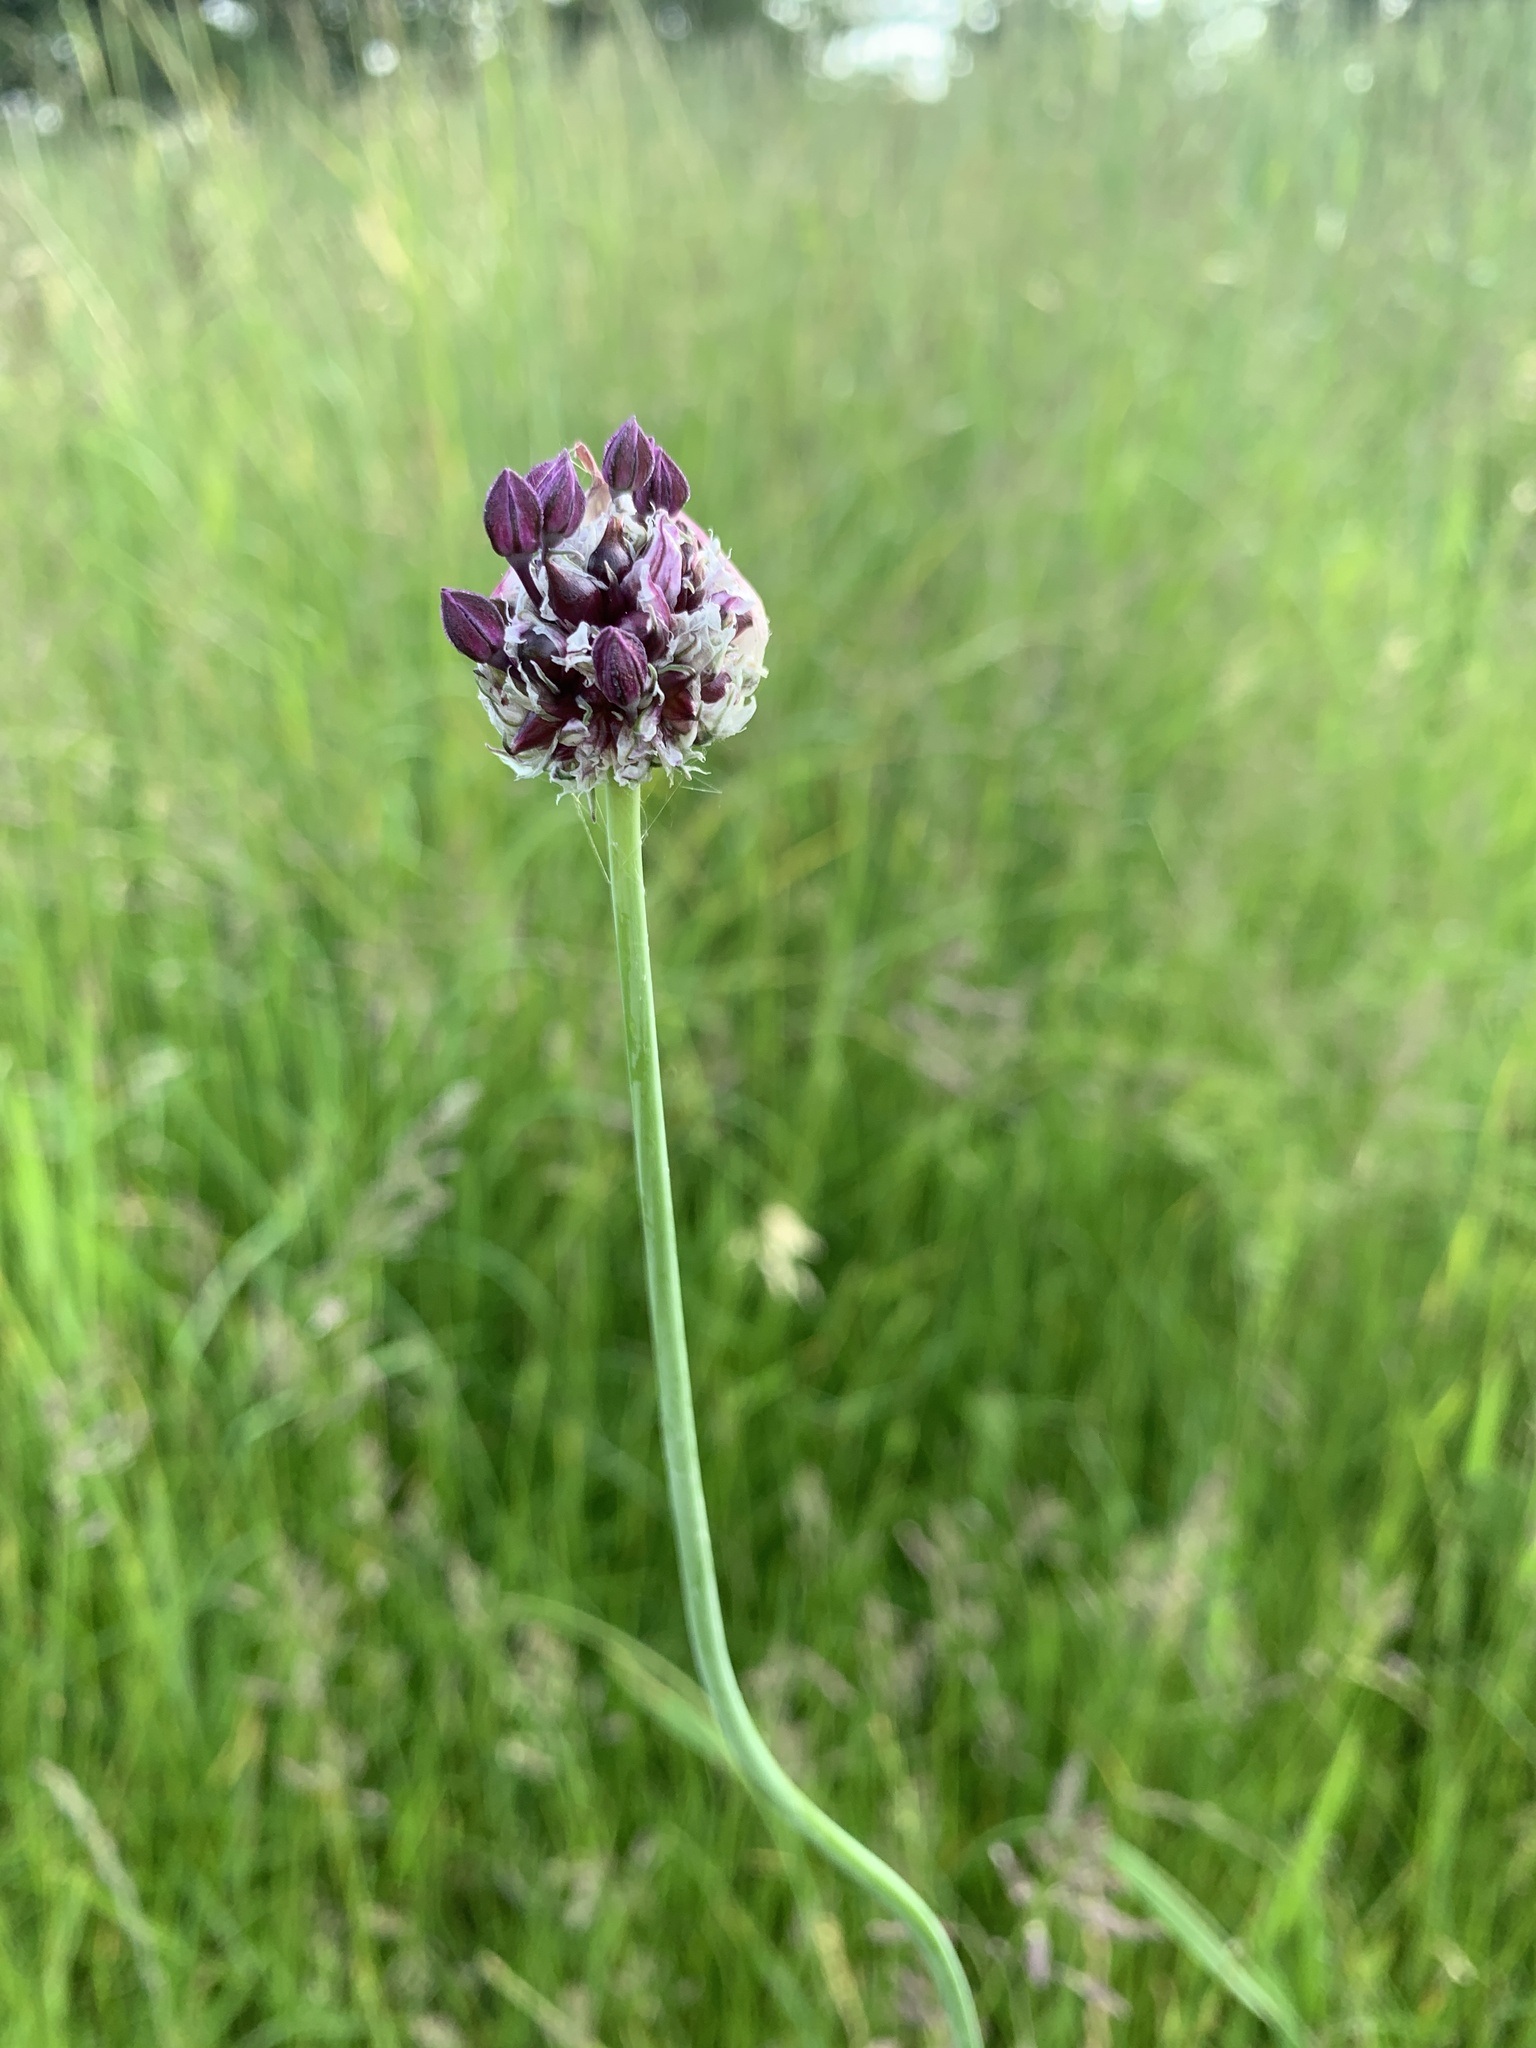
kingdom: Plantae
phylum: Tracheophyta
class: Liliopsida
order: Asparagales
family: Amaryllidaceae
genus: Allium
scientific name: Allium scorodoprasum
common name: Sand leek
